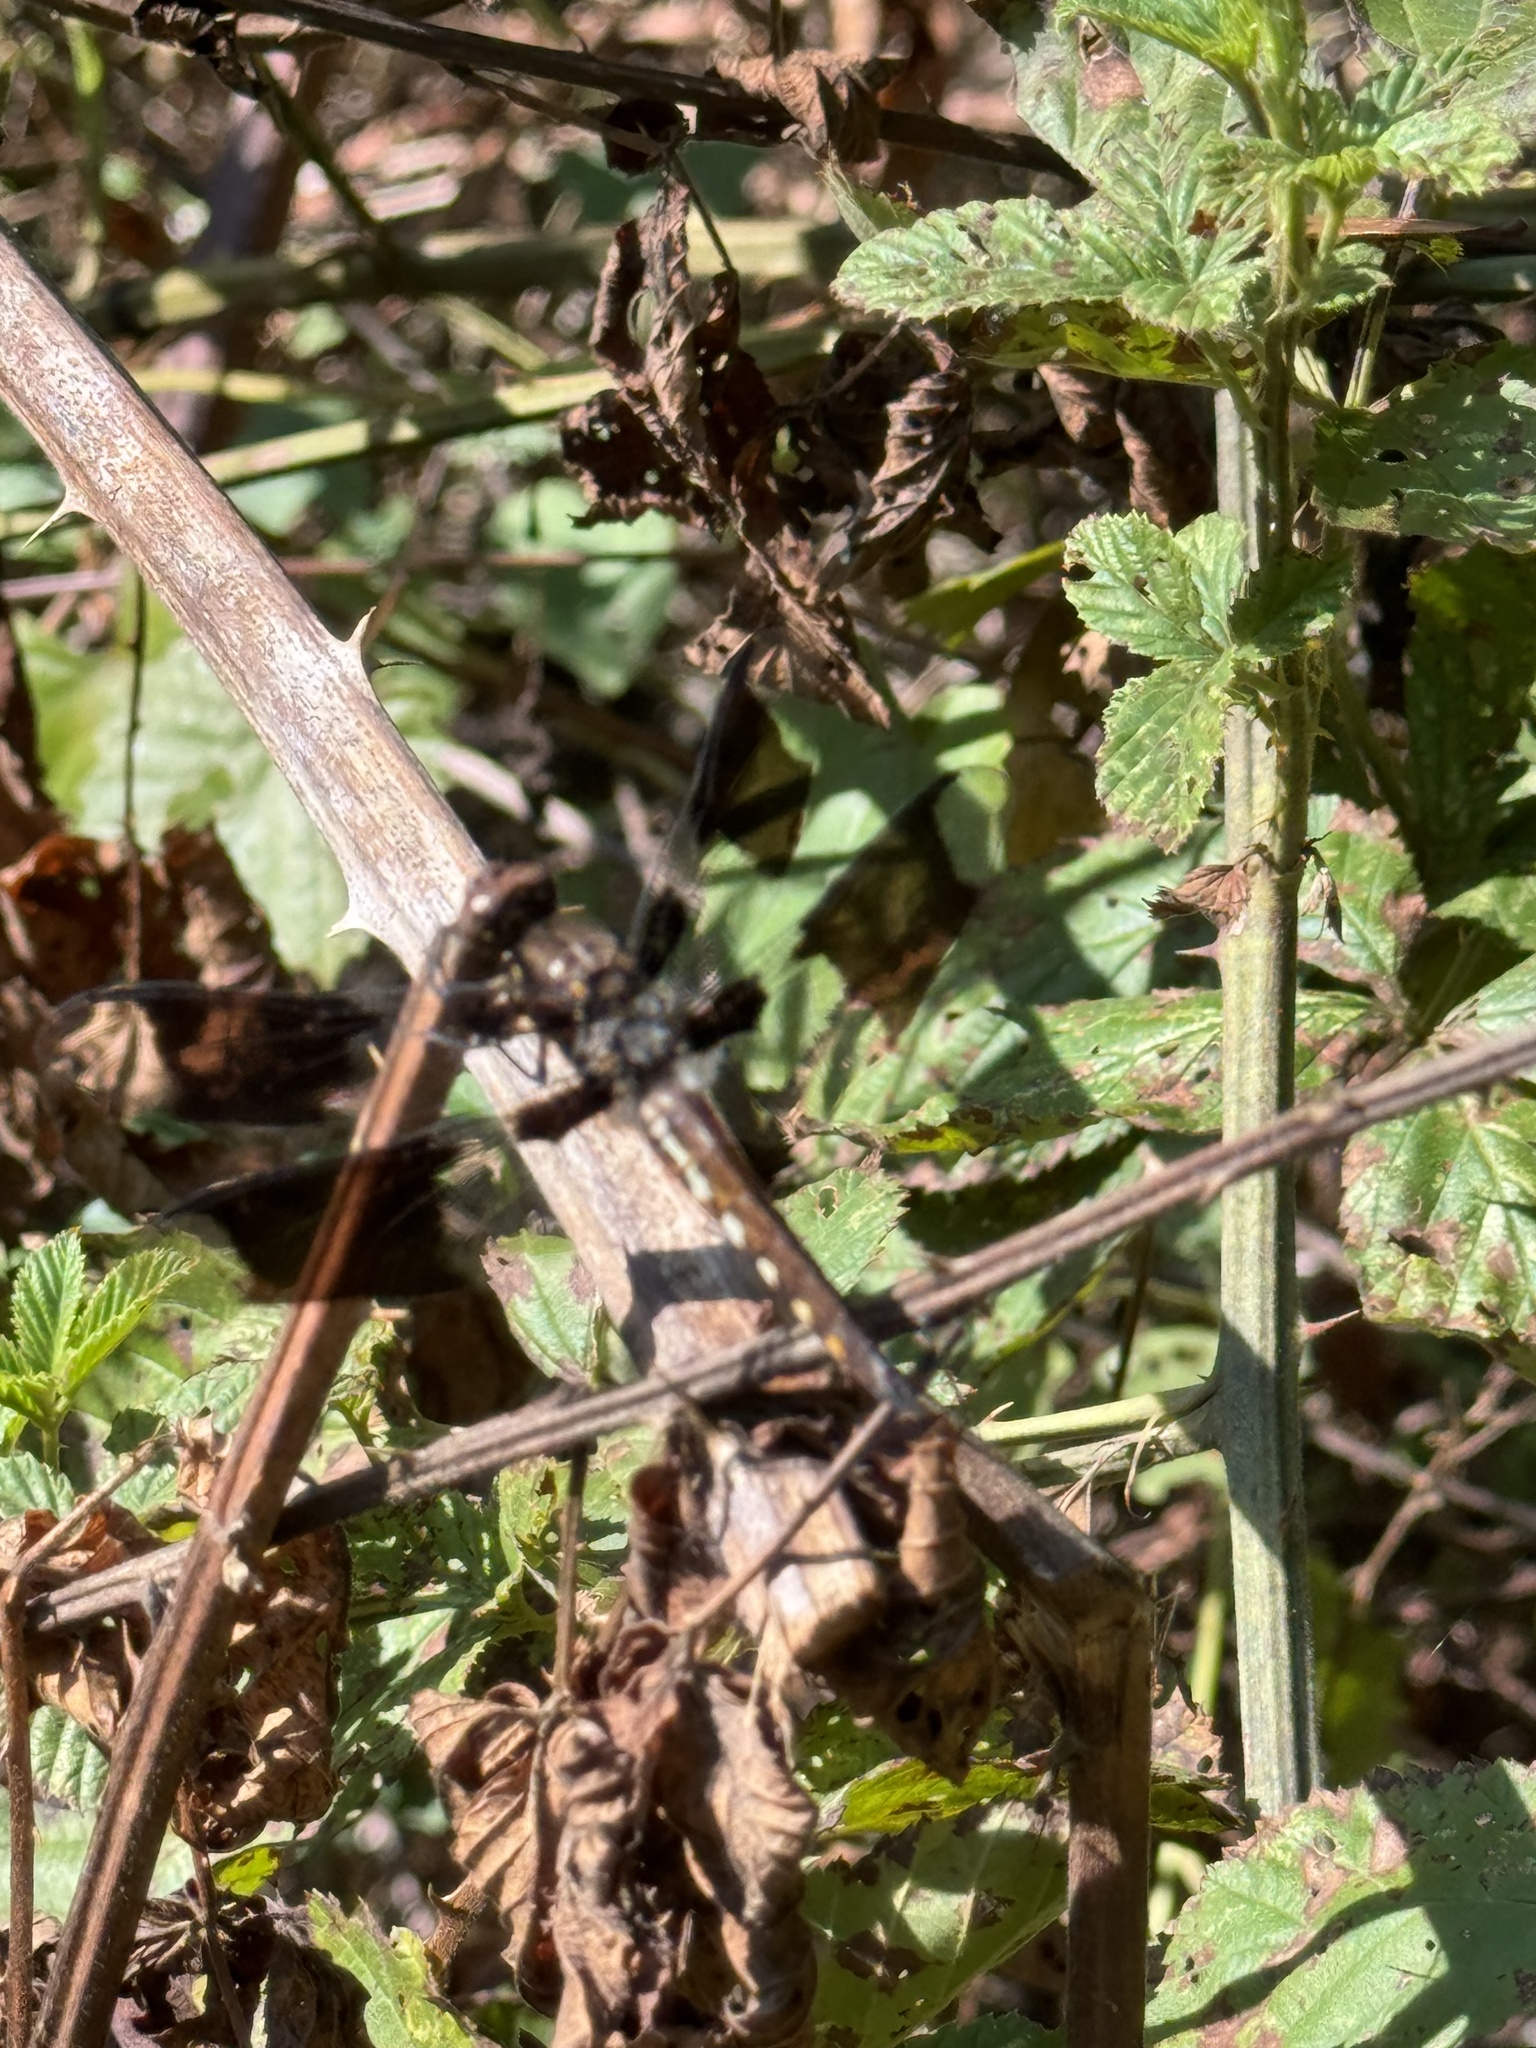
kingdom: Animalia
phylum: Arthropoda
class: Insecta
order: Odonata
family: Libellulidae
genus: Plathemis
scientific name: Plathemis lydia
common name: Common whitetail
